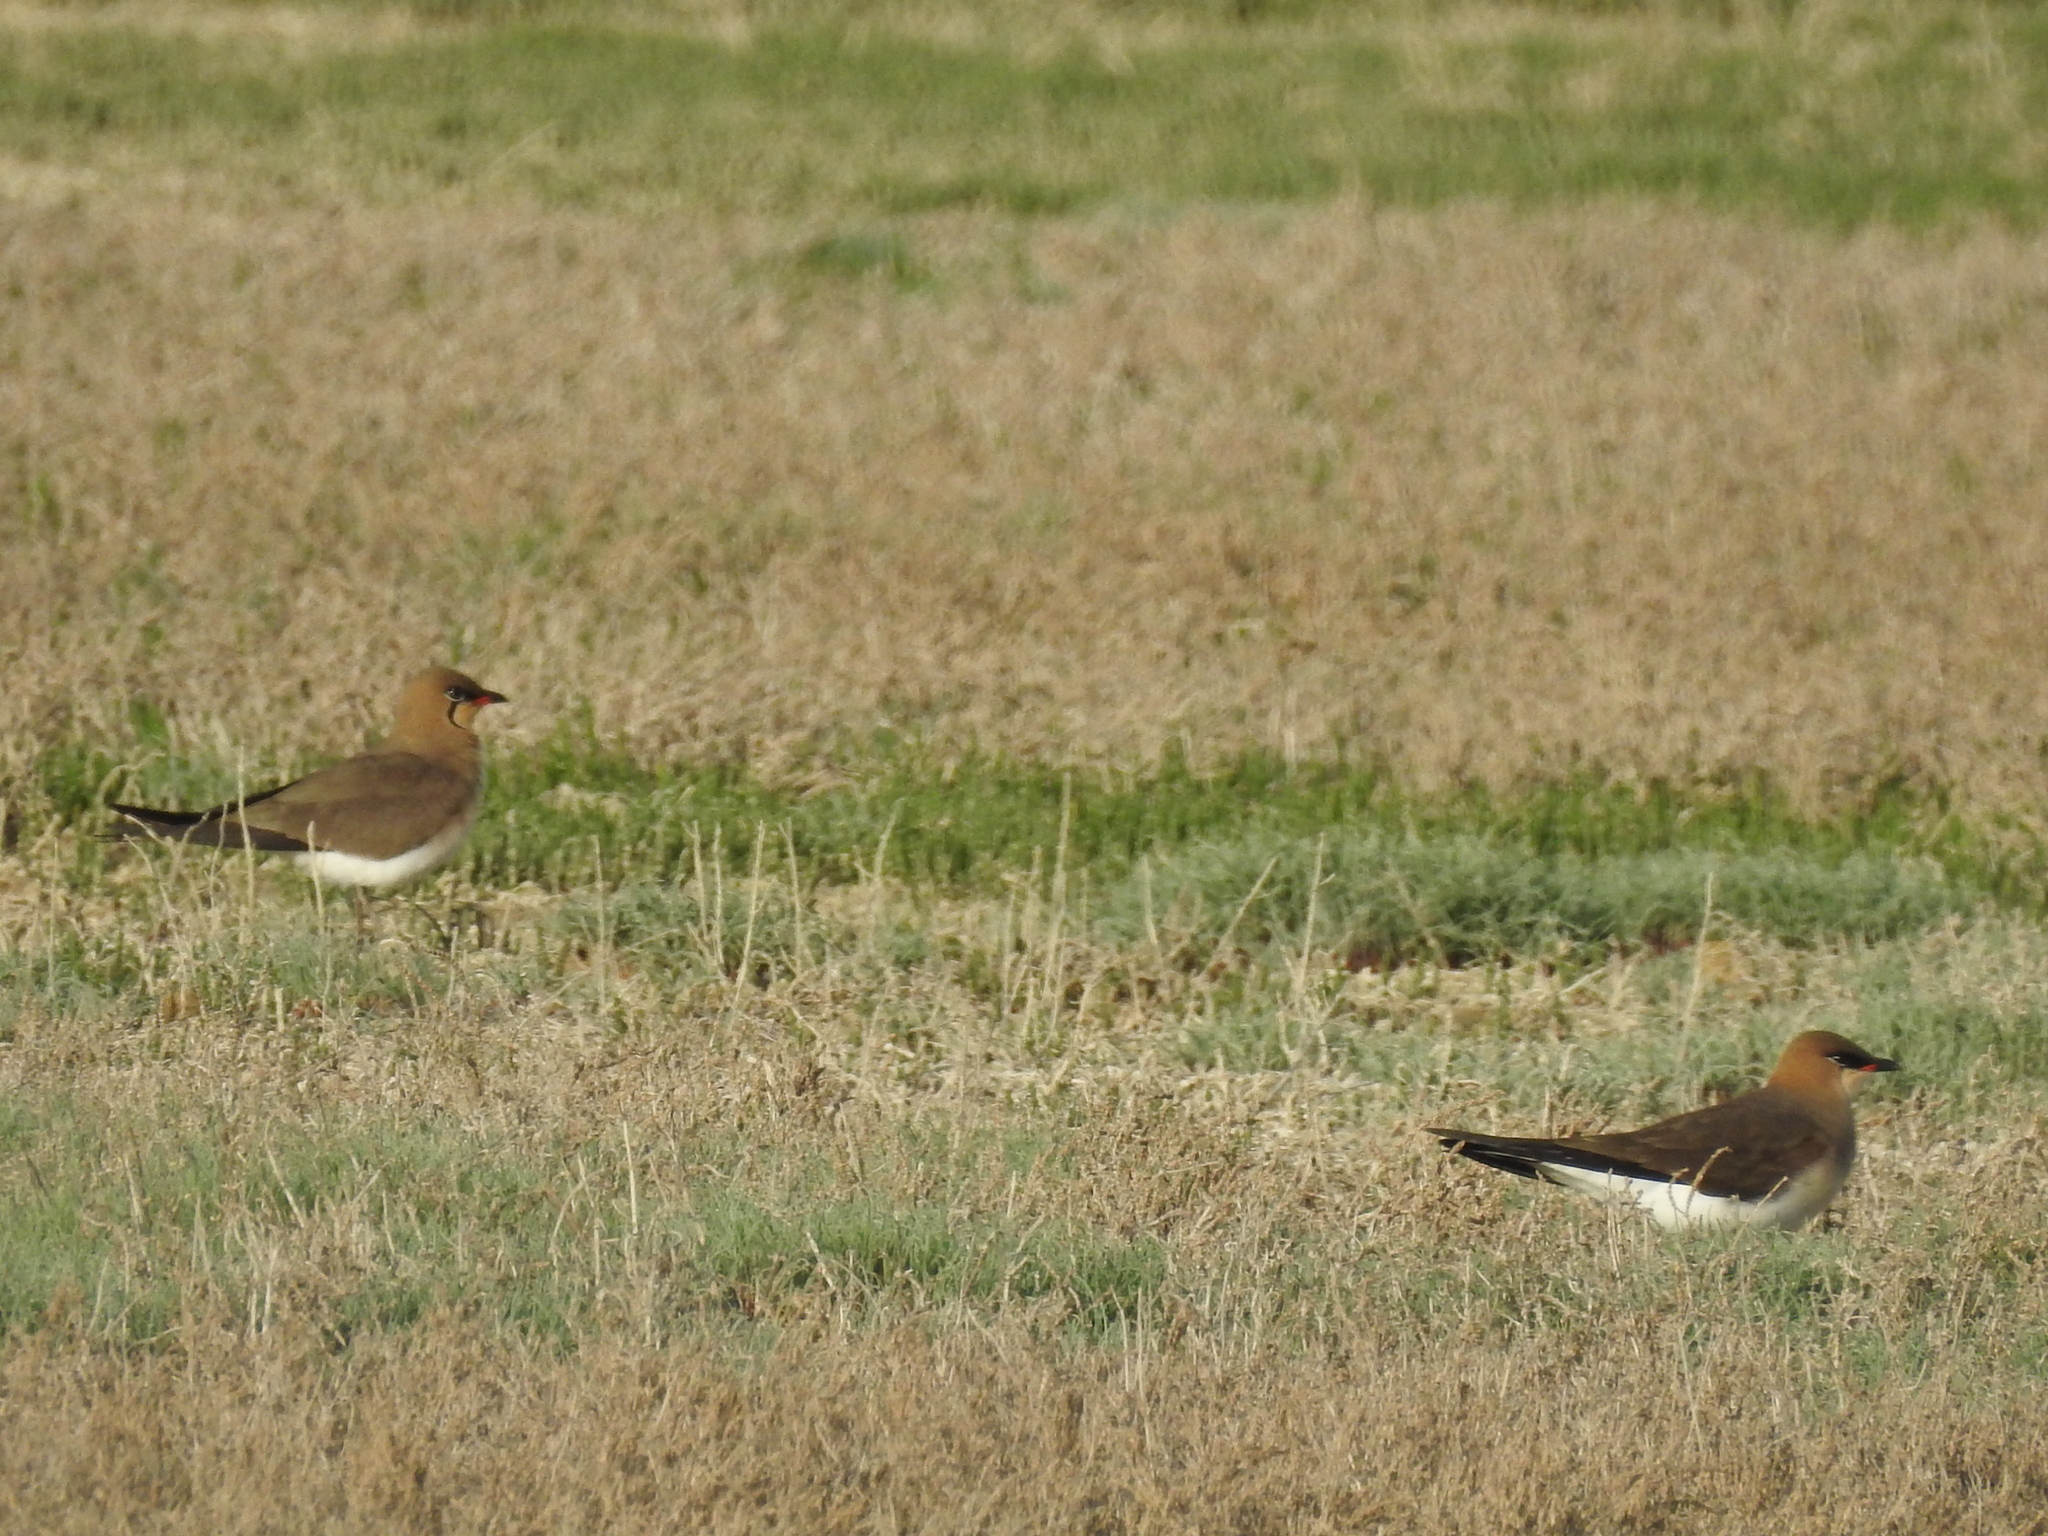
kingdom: Animalia
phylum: Chordata
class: Aves
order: Charadriiformes
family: Glareolidae
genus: Glareola
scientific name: Glareola nordmanni
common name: Black-winged pratincole
